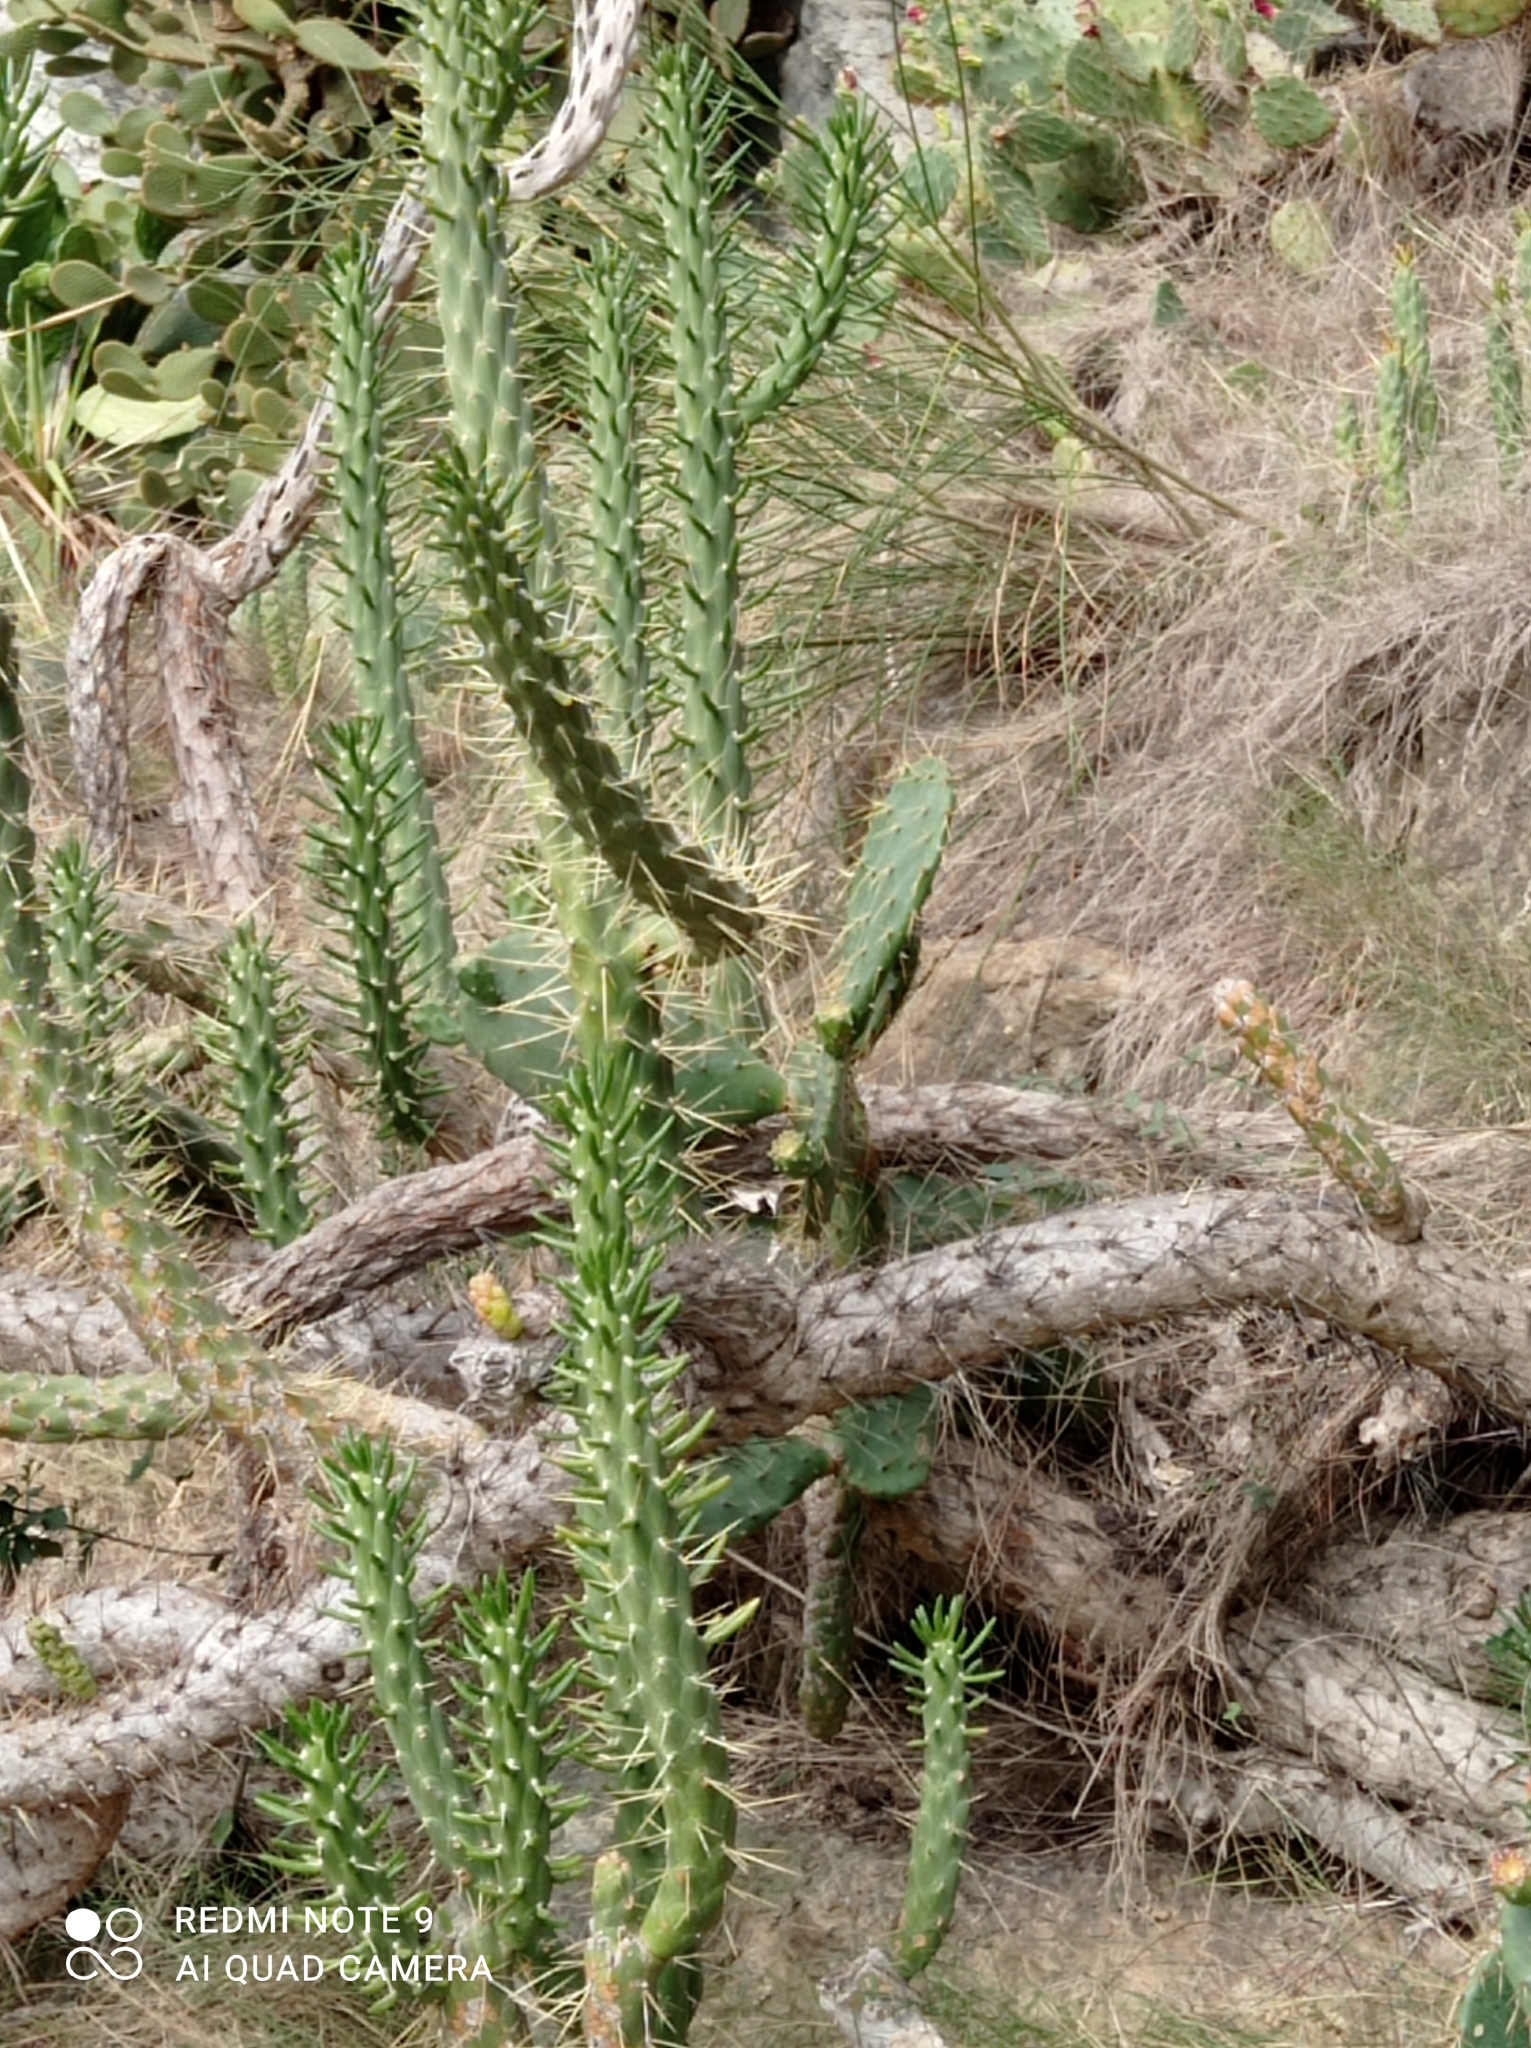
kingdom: Plantae
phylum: Tracheophyta
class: Magnoliopsida
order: Caryophyllales
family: Cactaceae
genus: Austrocylindropuntia
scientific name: Austrocylindropuntia subulata
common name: Eve's needle cactus
